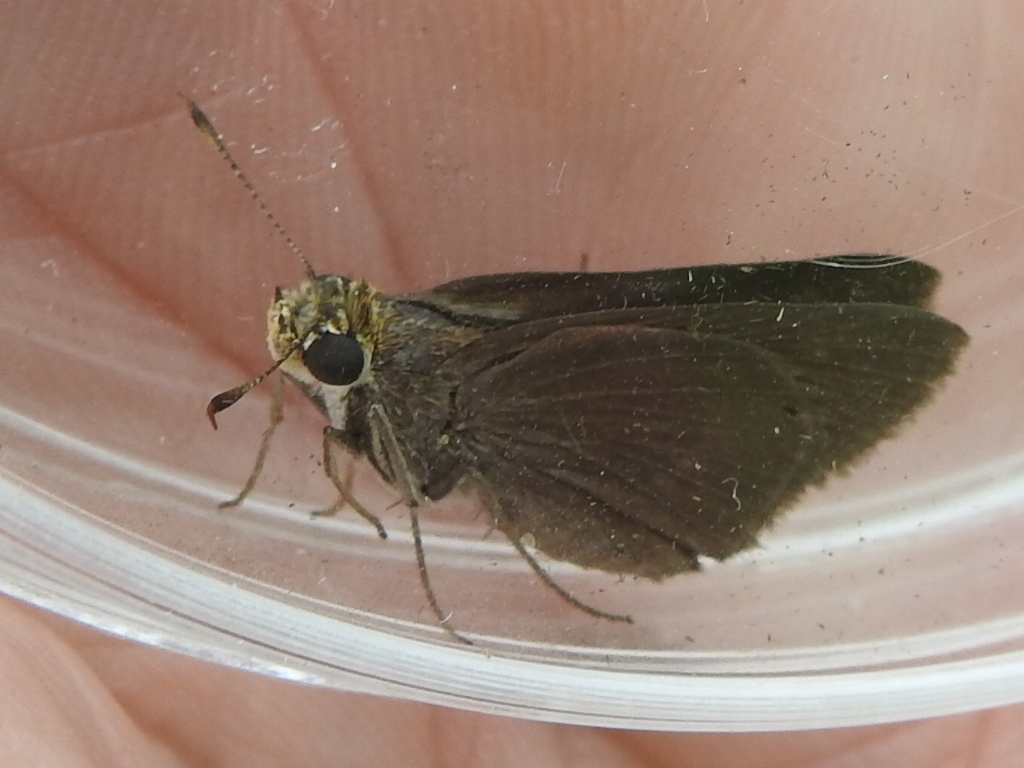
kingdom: Animalia
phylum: Arthropoda
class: Insecta
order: Lepidoptera
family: Hesperiidae
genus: Euphyes
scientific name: Euphyes vestris
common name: Dun skipper
